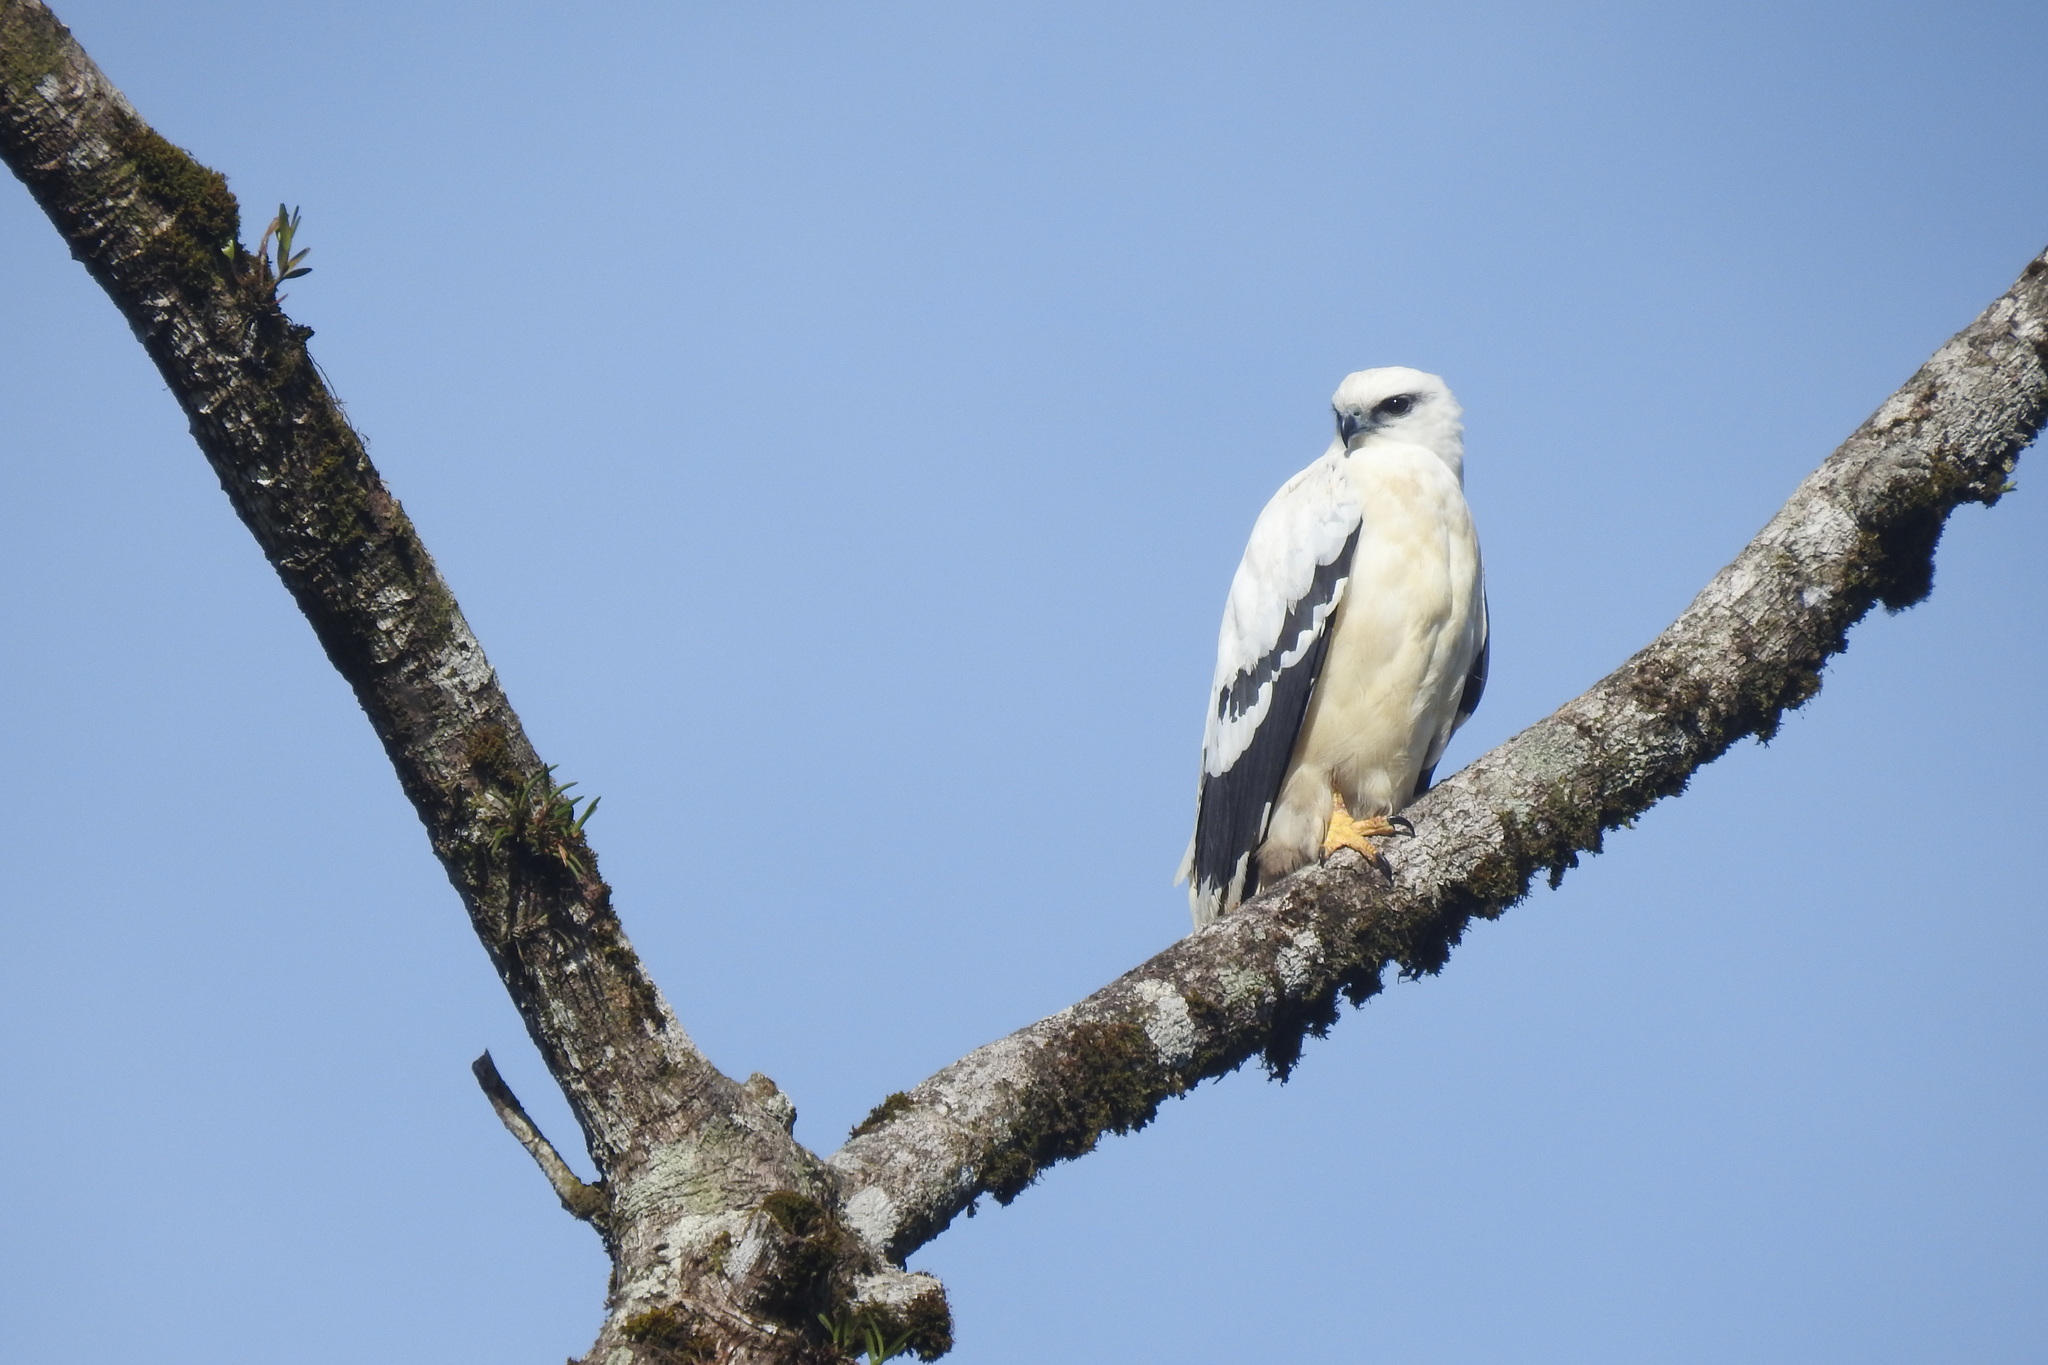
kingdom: Animalia
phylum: Chordata
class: Aves
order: Accipitriformes
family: Accipitridae
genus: Leucopternis
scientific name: Leucopternis albicollis
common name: White hawk
